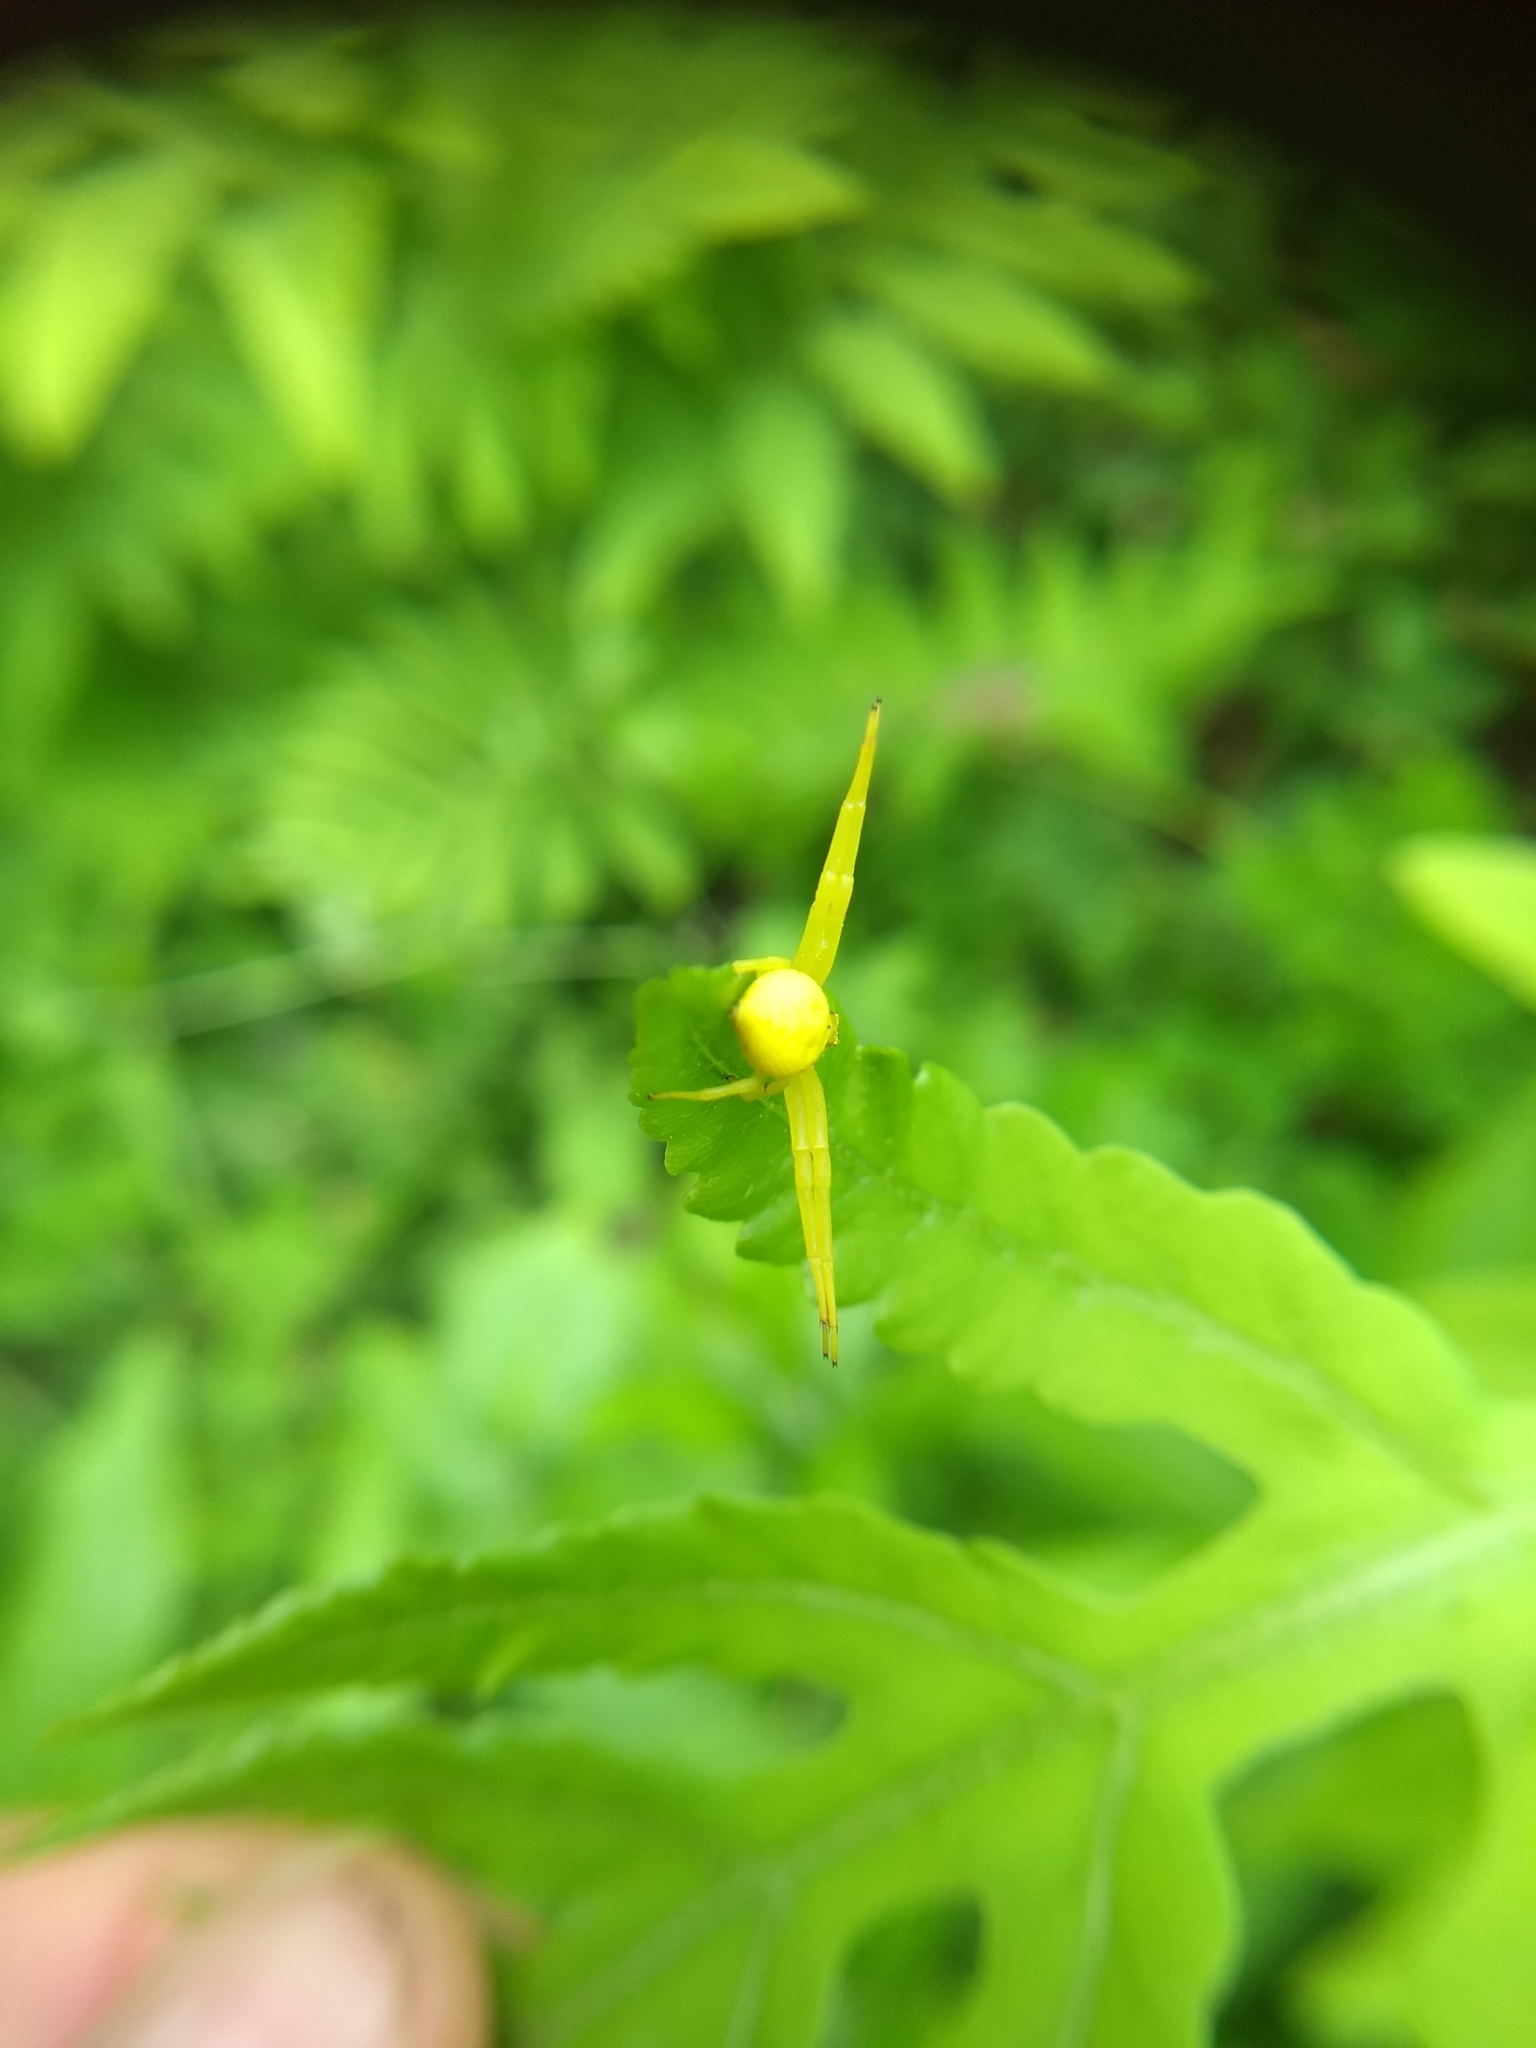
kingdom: Animalia
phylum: Arthropoda
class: Arachnida
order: Araneae
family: Thomisidae
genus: Misumena
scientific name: Misumena vatia
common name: Goldenrod crab spider
